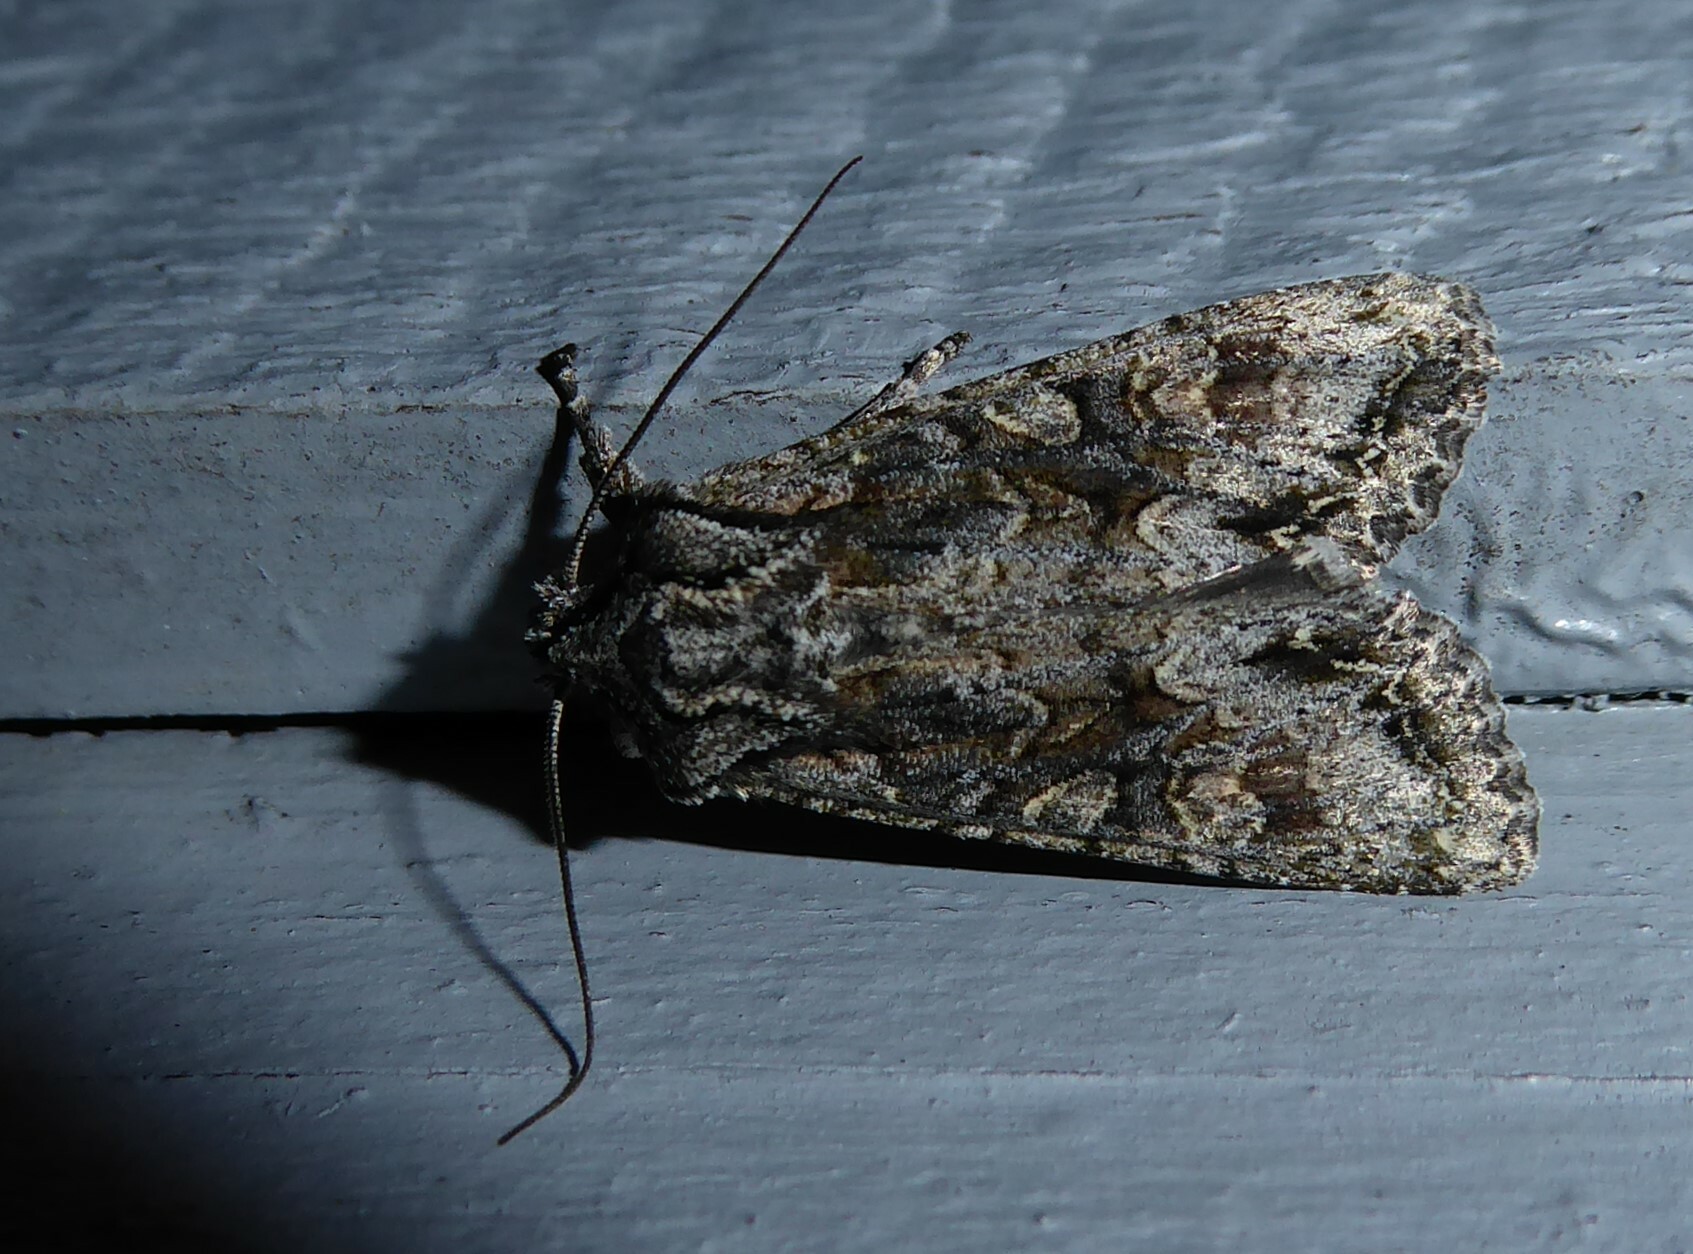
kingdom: Animalia
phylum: Arthropoda
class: Insecta
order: Lepidoptera
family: Noctuidae
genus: Ichneutica
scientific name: Ichneutica mutans
